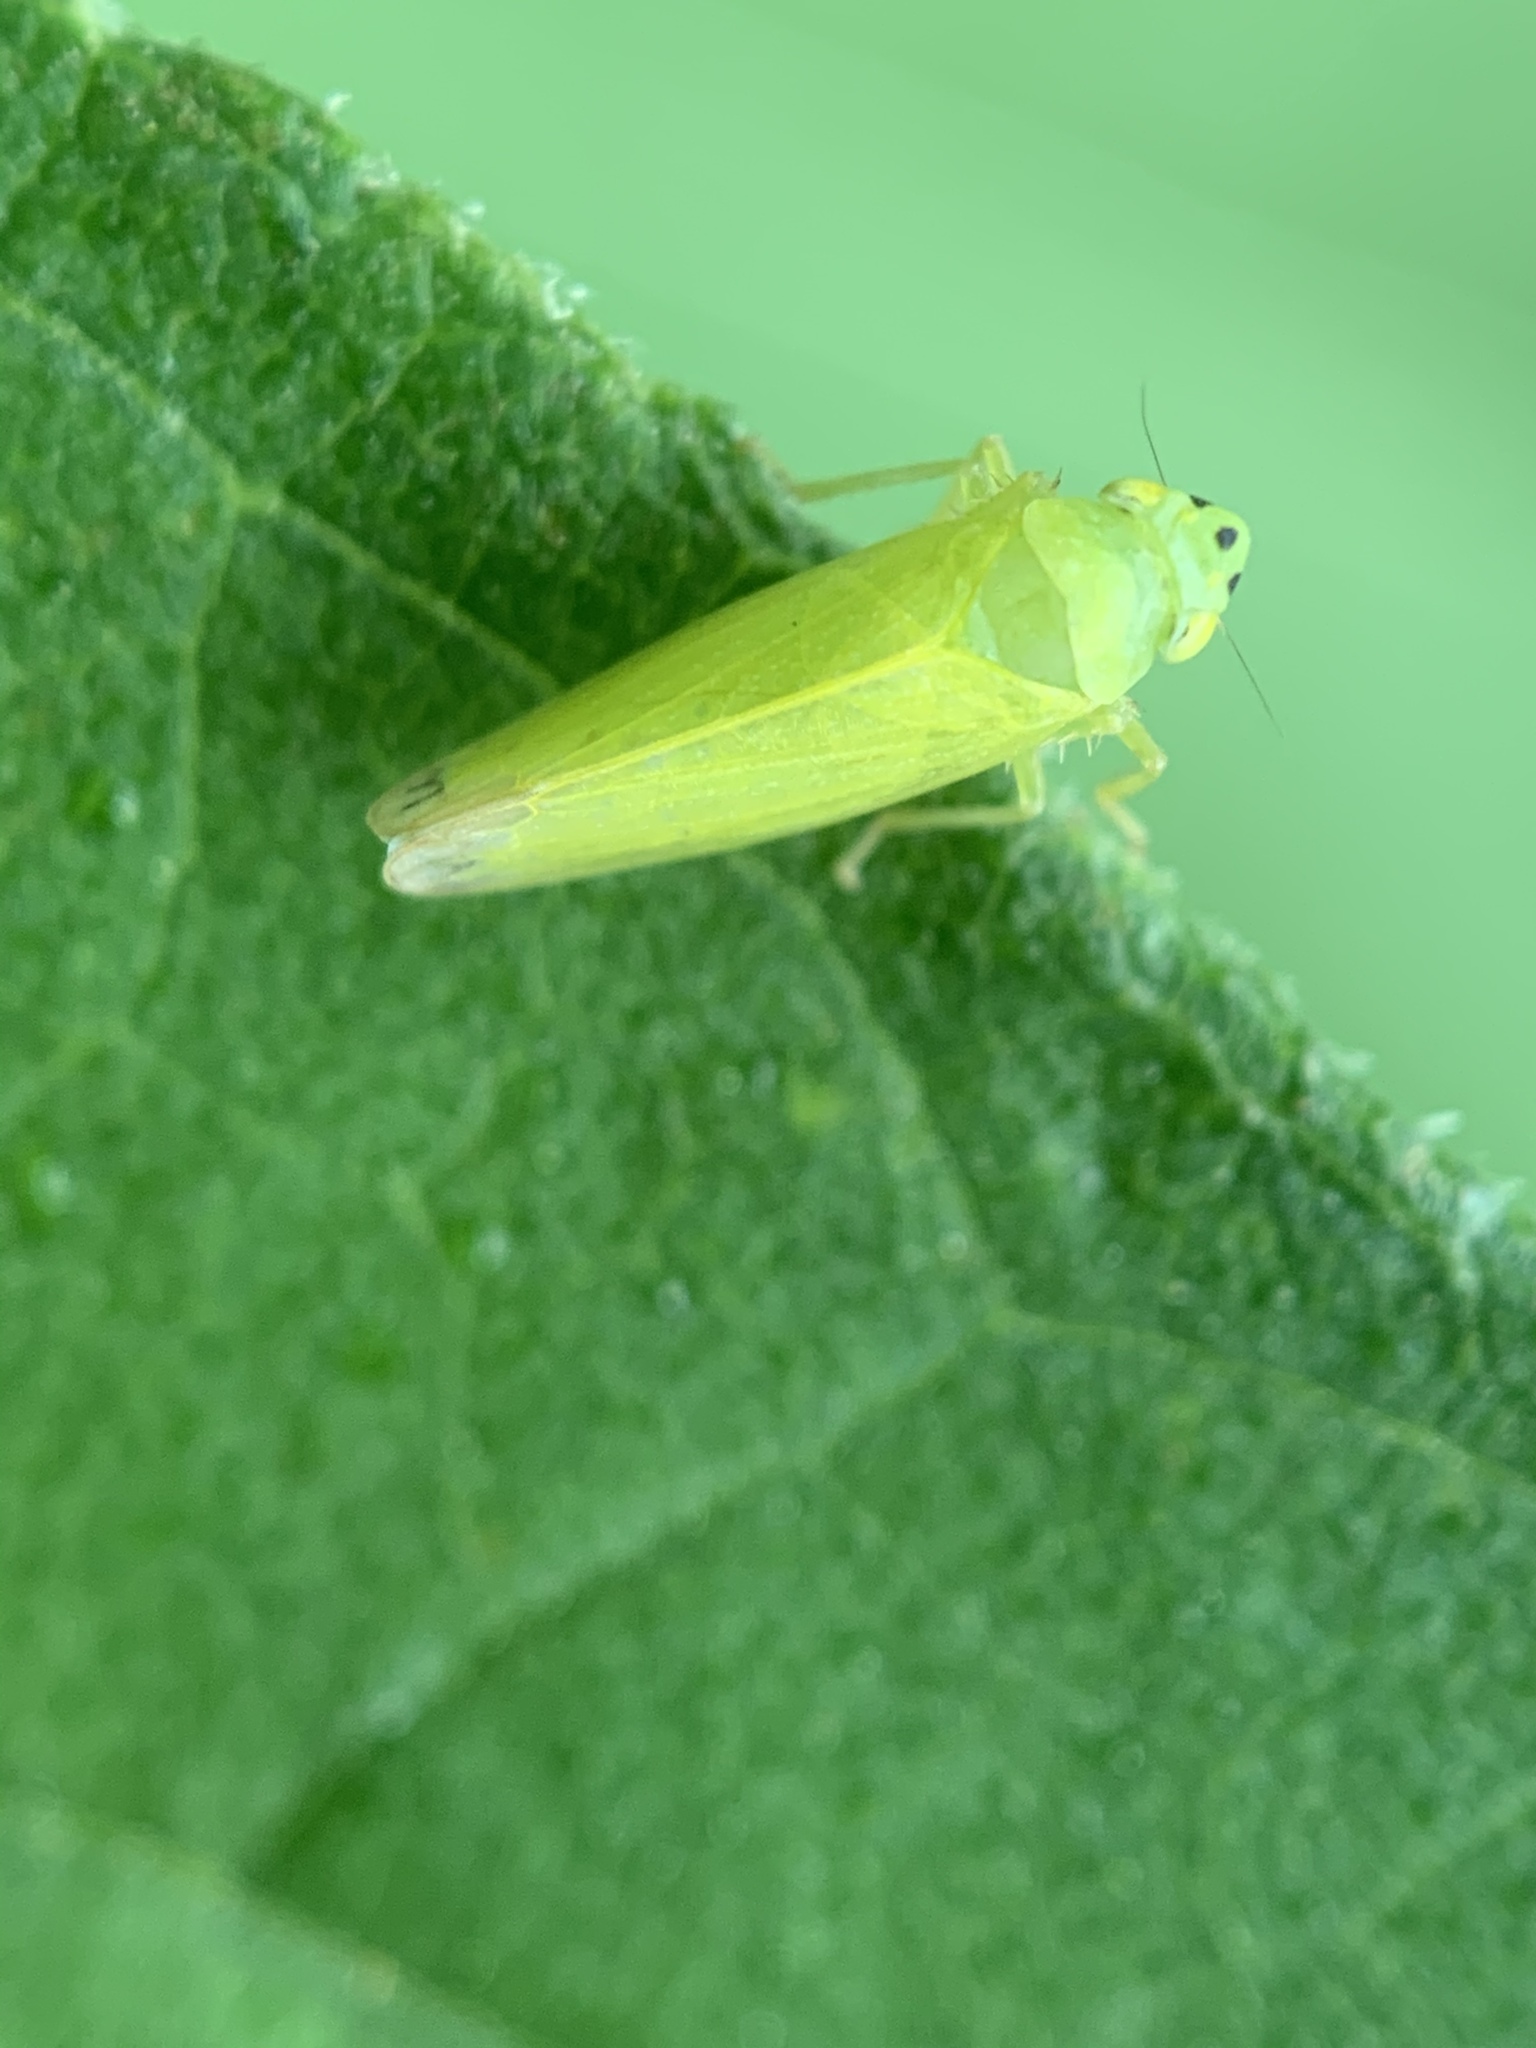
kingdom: Animalia
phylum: Arthropoda
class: Insecta
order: Hemiptera
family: Cicadellidae
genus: Pagaronia
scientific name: Pagaronia minor
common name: Leafhopper
